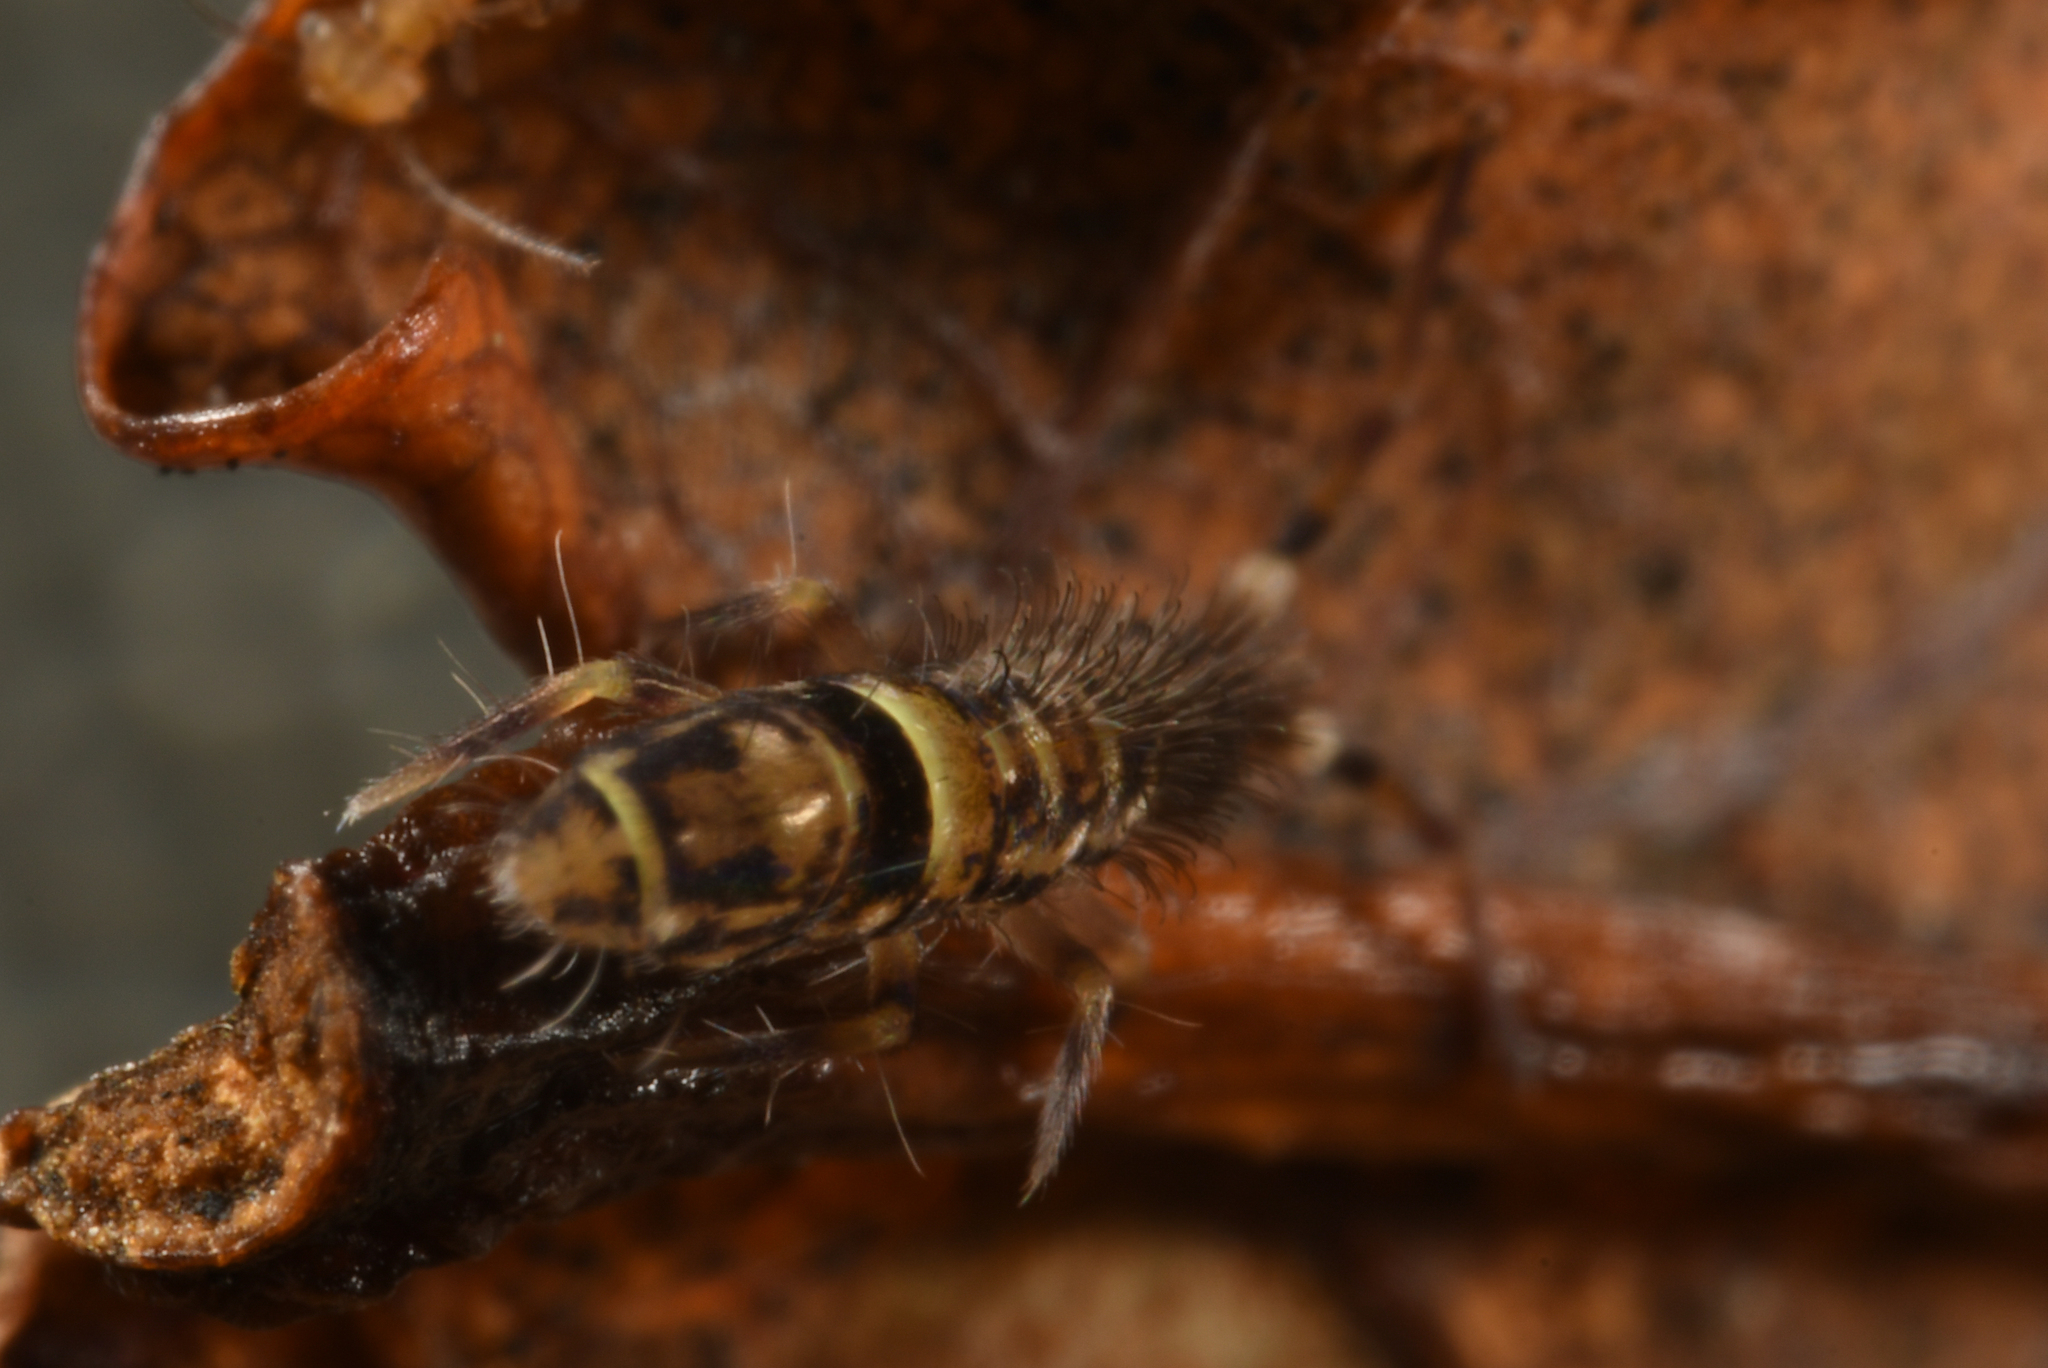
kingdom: Animalia
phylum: Arthropoda
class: Collembola
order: Entomobryomorpha
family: Orchesellidae
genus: Orchesella
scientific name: Orchesella cincta
